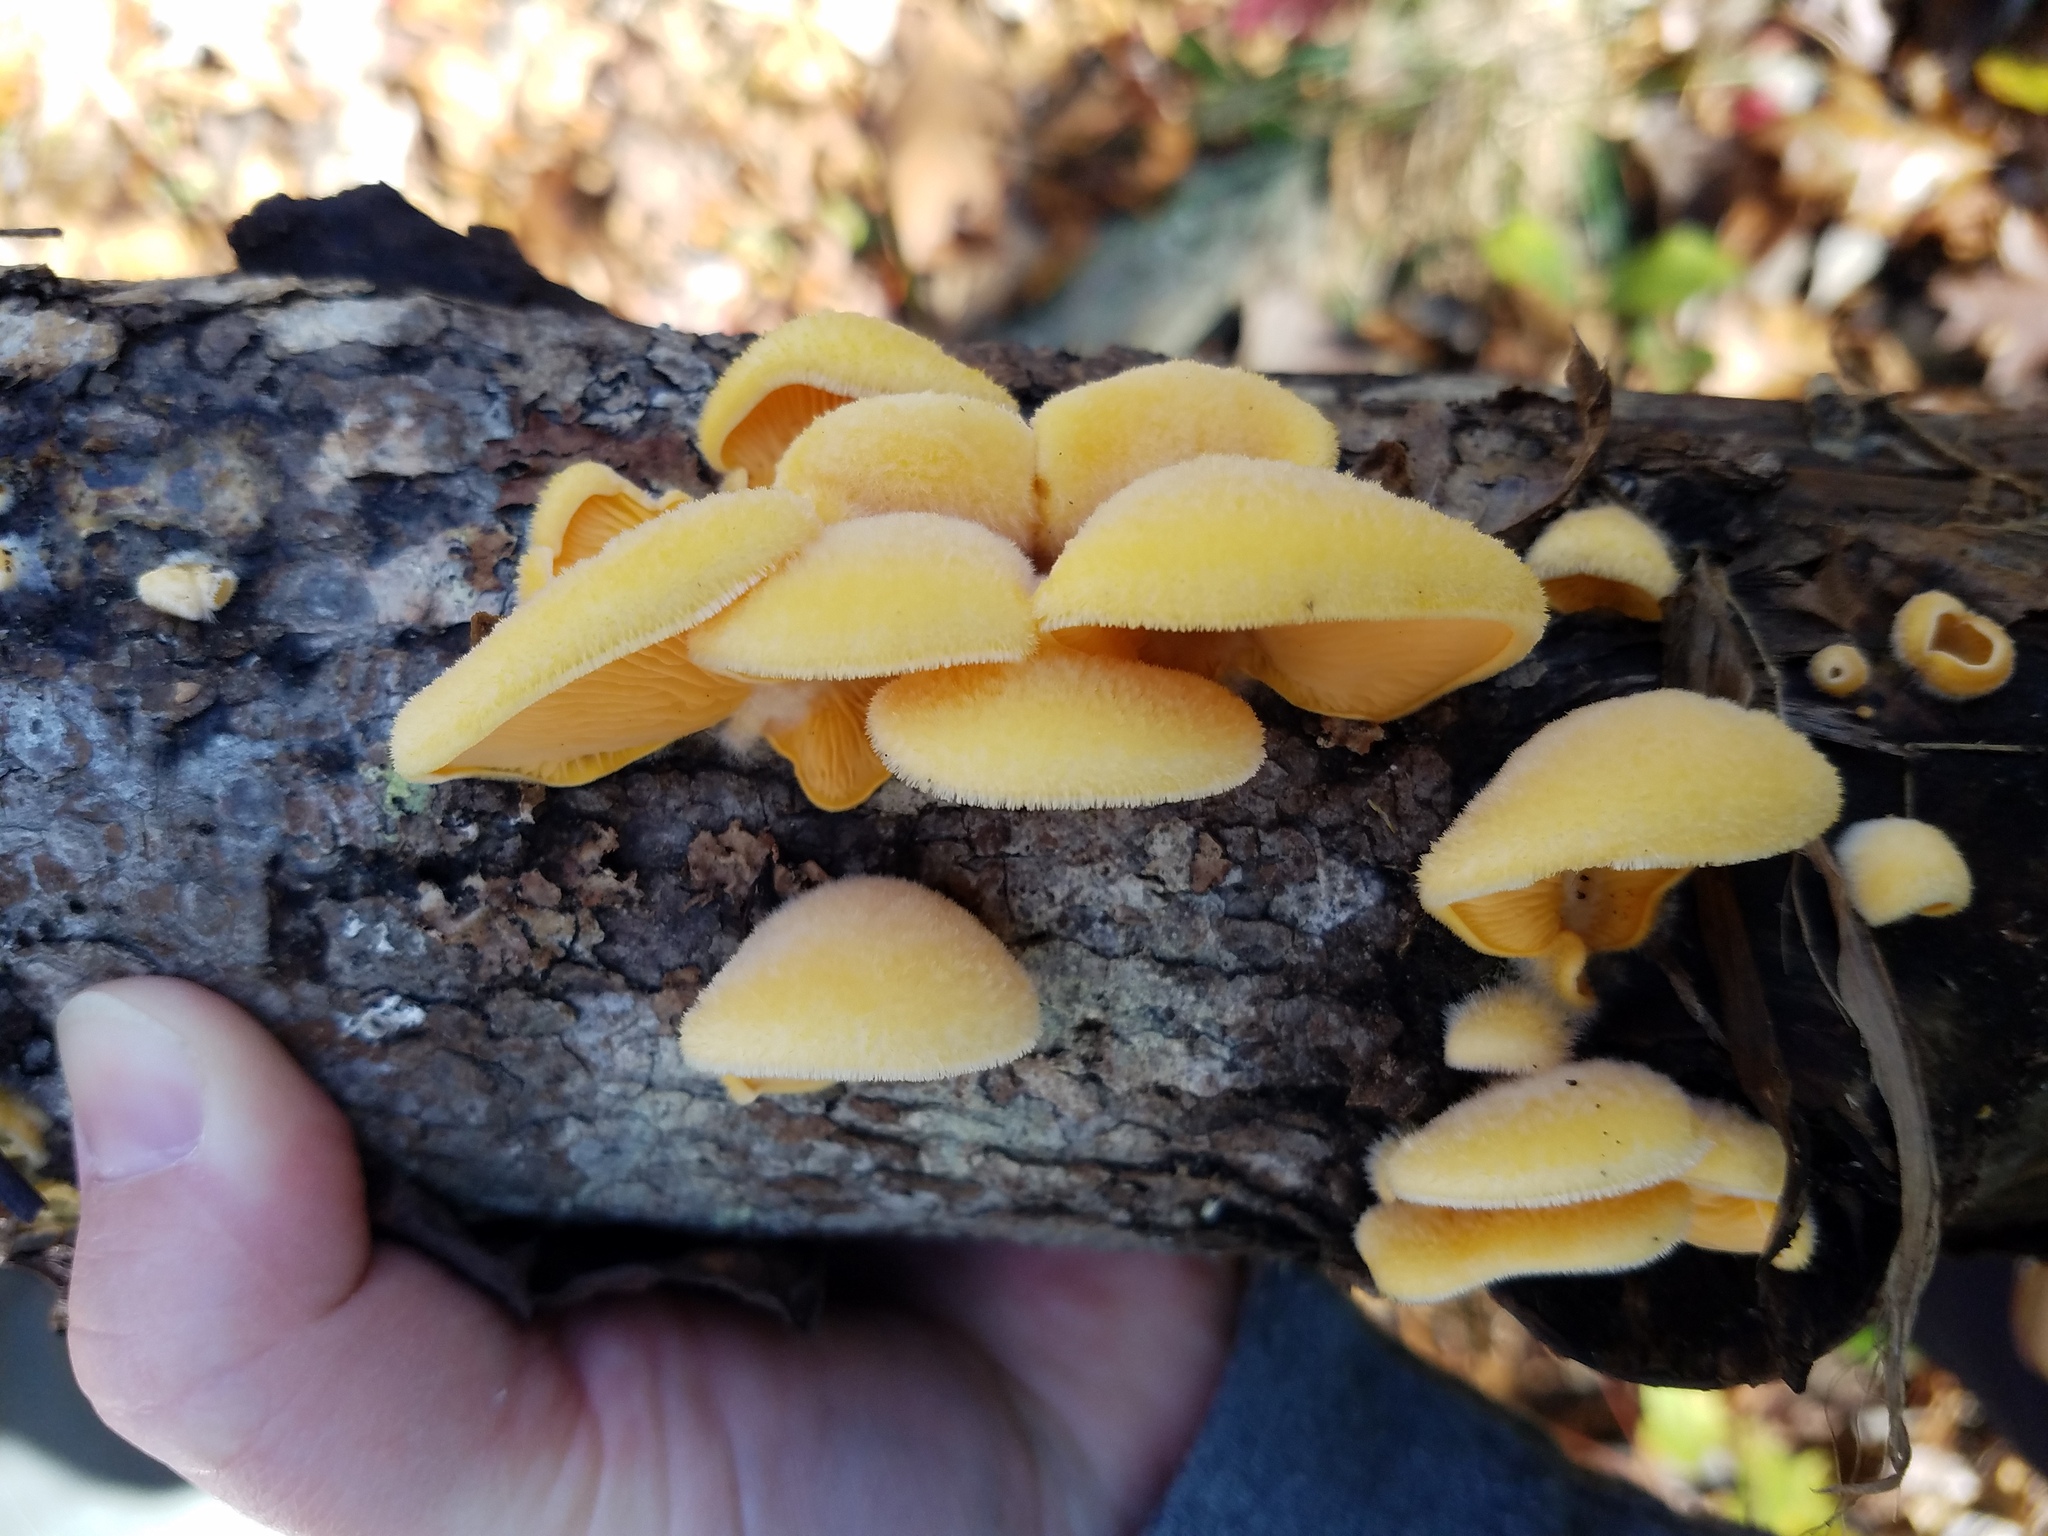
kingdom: Fungi
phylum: Basidiomycota
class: Agaricomycetes
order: Agaricales
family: Phyllotopsidaceae
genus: Phyllotopsis
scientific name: Phyllotopsis nidulans
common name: Orange mock oyster
